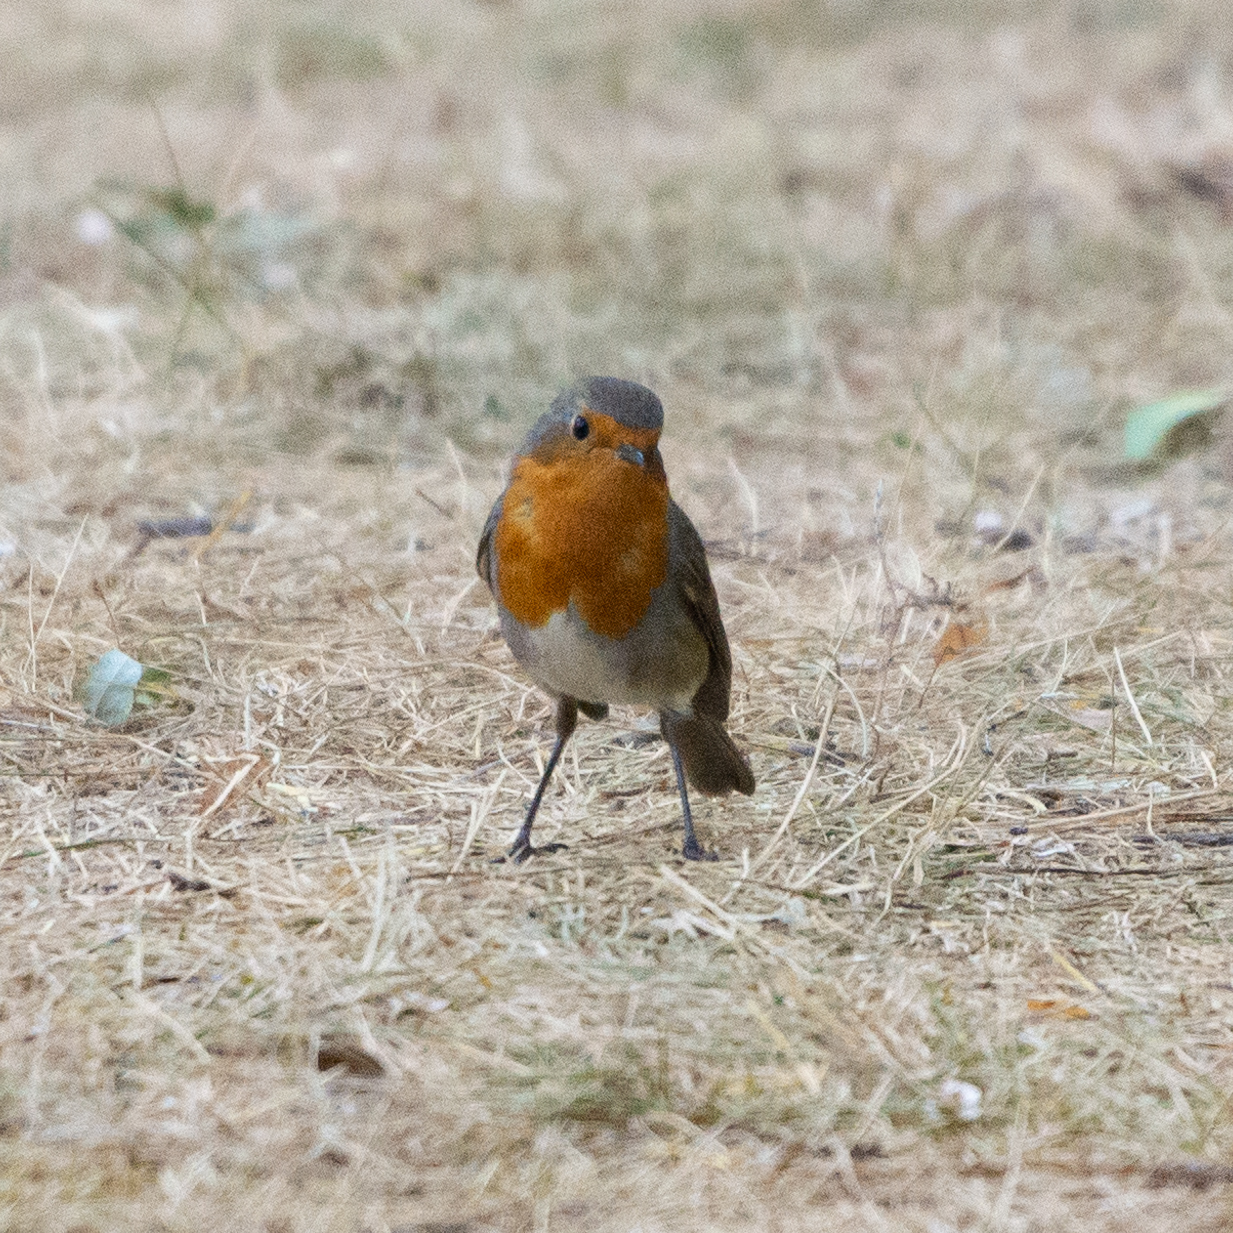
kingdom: Animalia
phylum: Chordata
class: Aves
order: Passeriformes
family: Muscicapidae
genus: Erithacus
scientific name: Erithacus rubecula
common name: European robin
